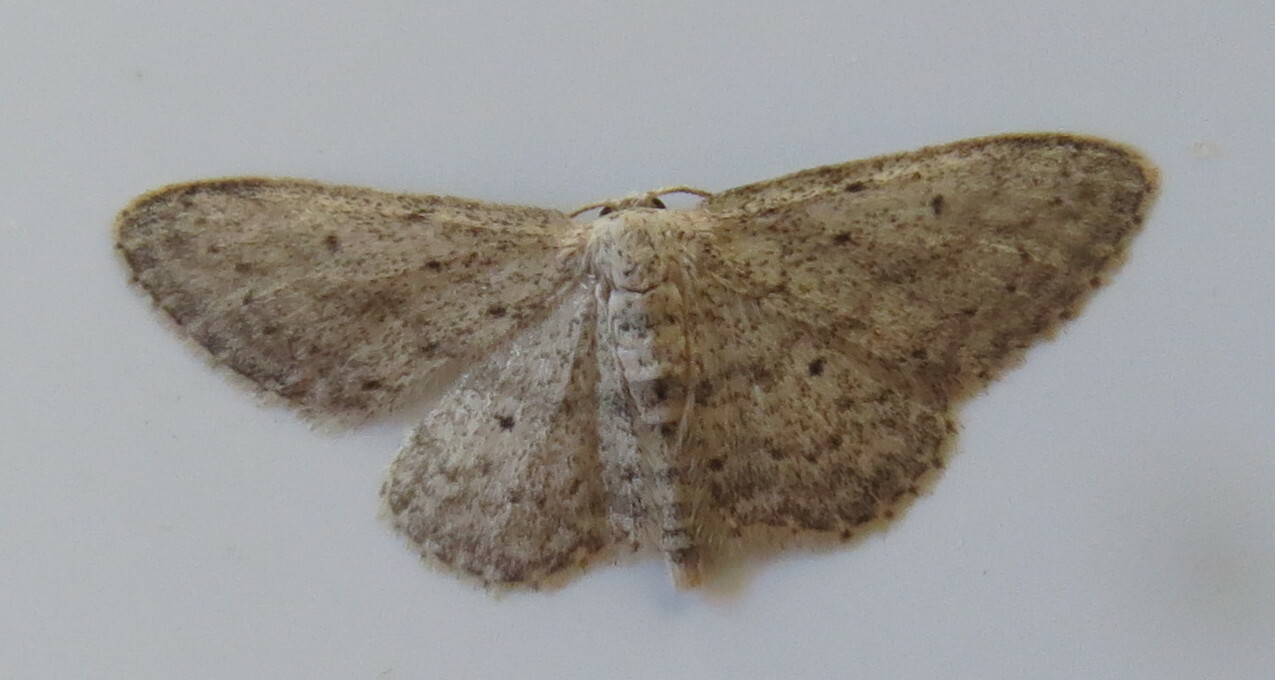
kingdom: Animalia
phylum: Arthropoda
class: Insecta
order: Lepidoptera
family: Geometridae
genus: Idaea
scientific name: Idaea seriata
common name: Small dusty wave
